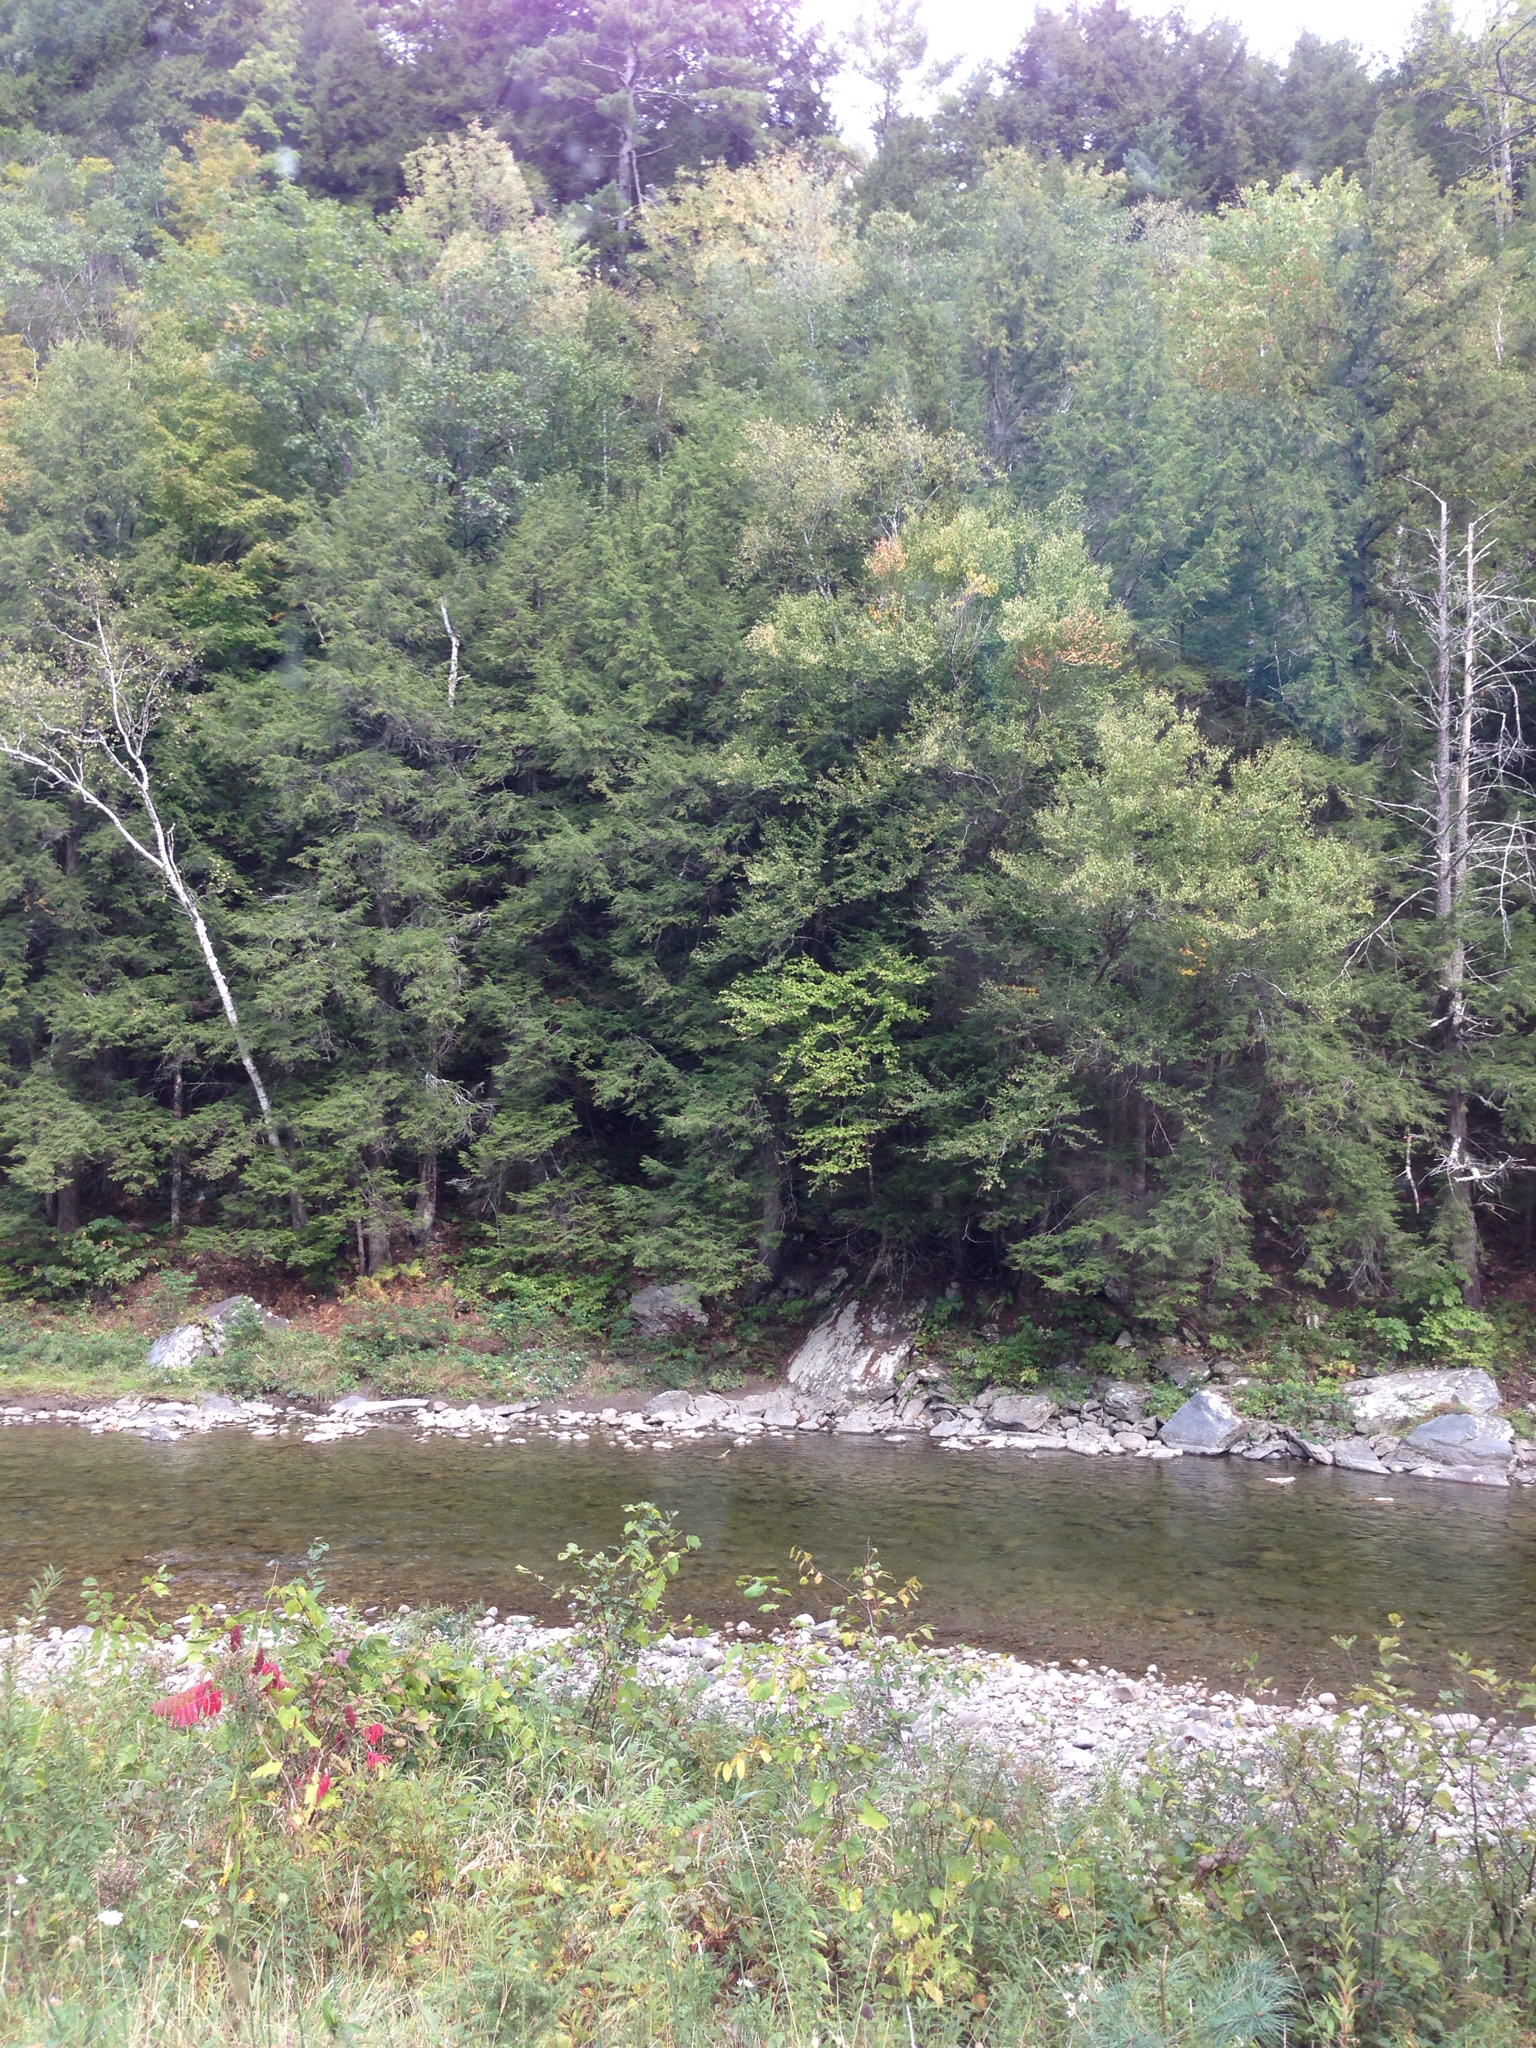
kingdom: Plantae
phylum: Tracheophyta
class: Magnoliopsida
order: Sapindales
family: Anacardiaceae
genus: Rhus
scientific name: Rhus typhina
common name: Staghorn sumac
